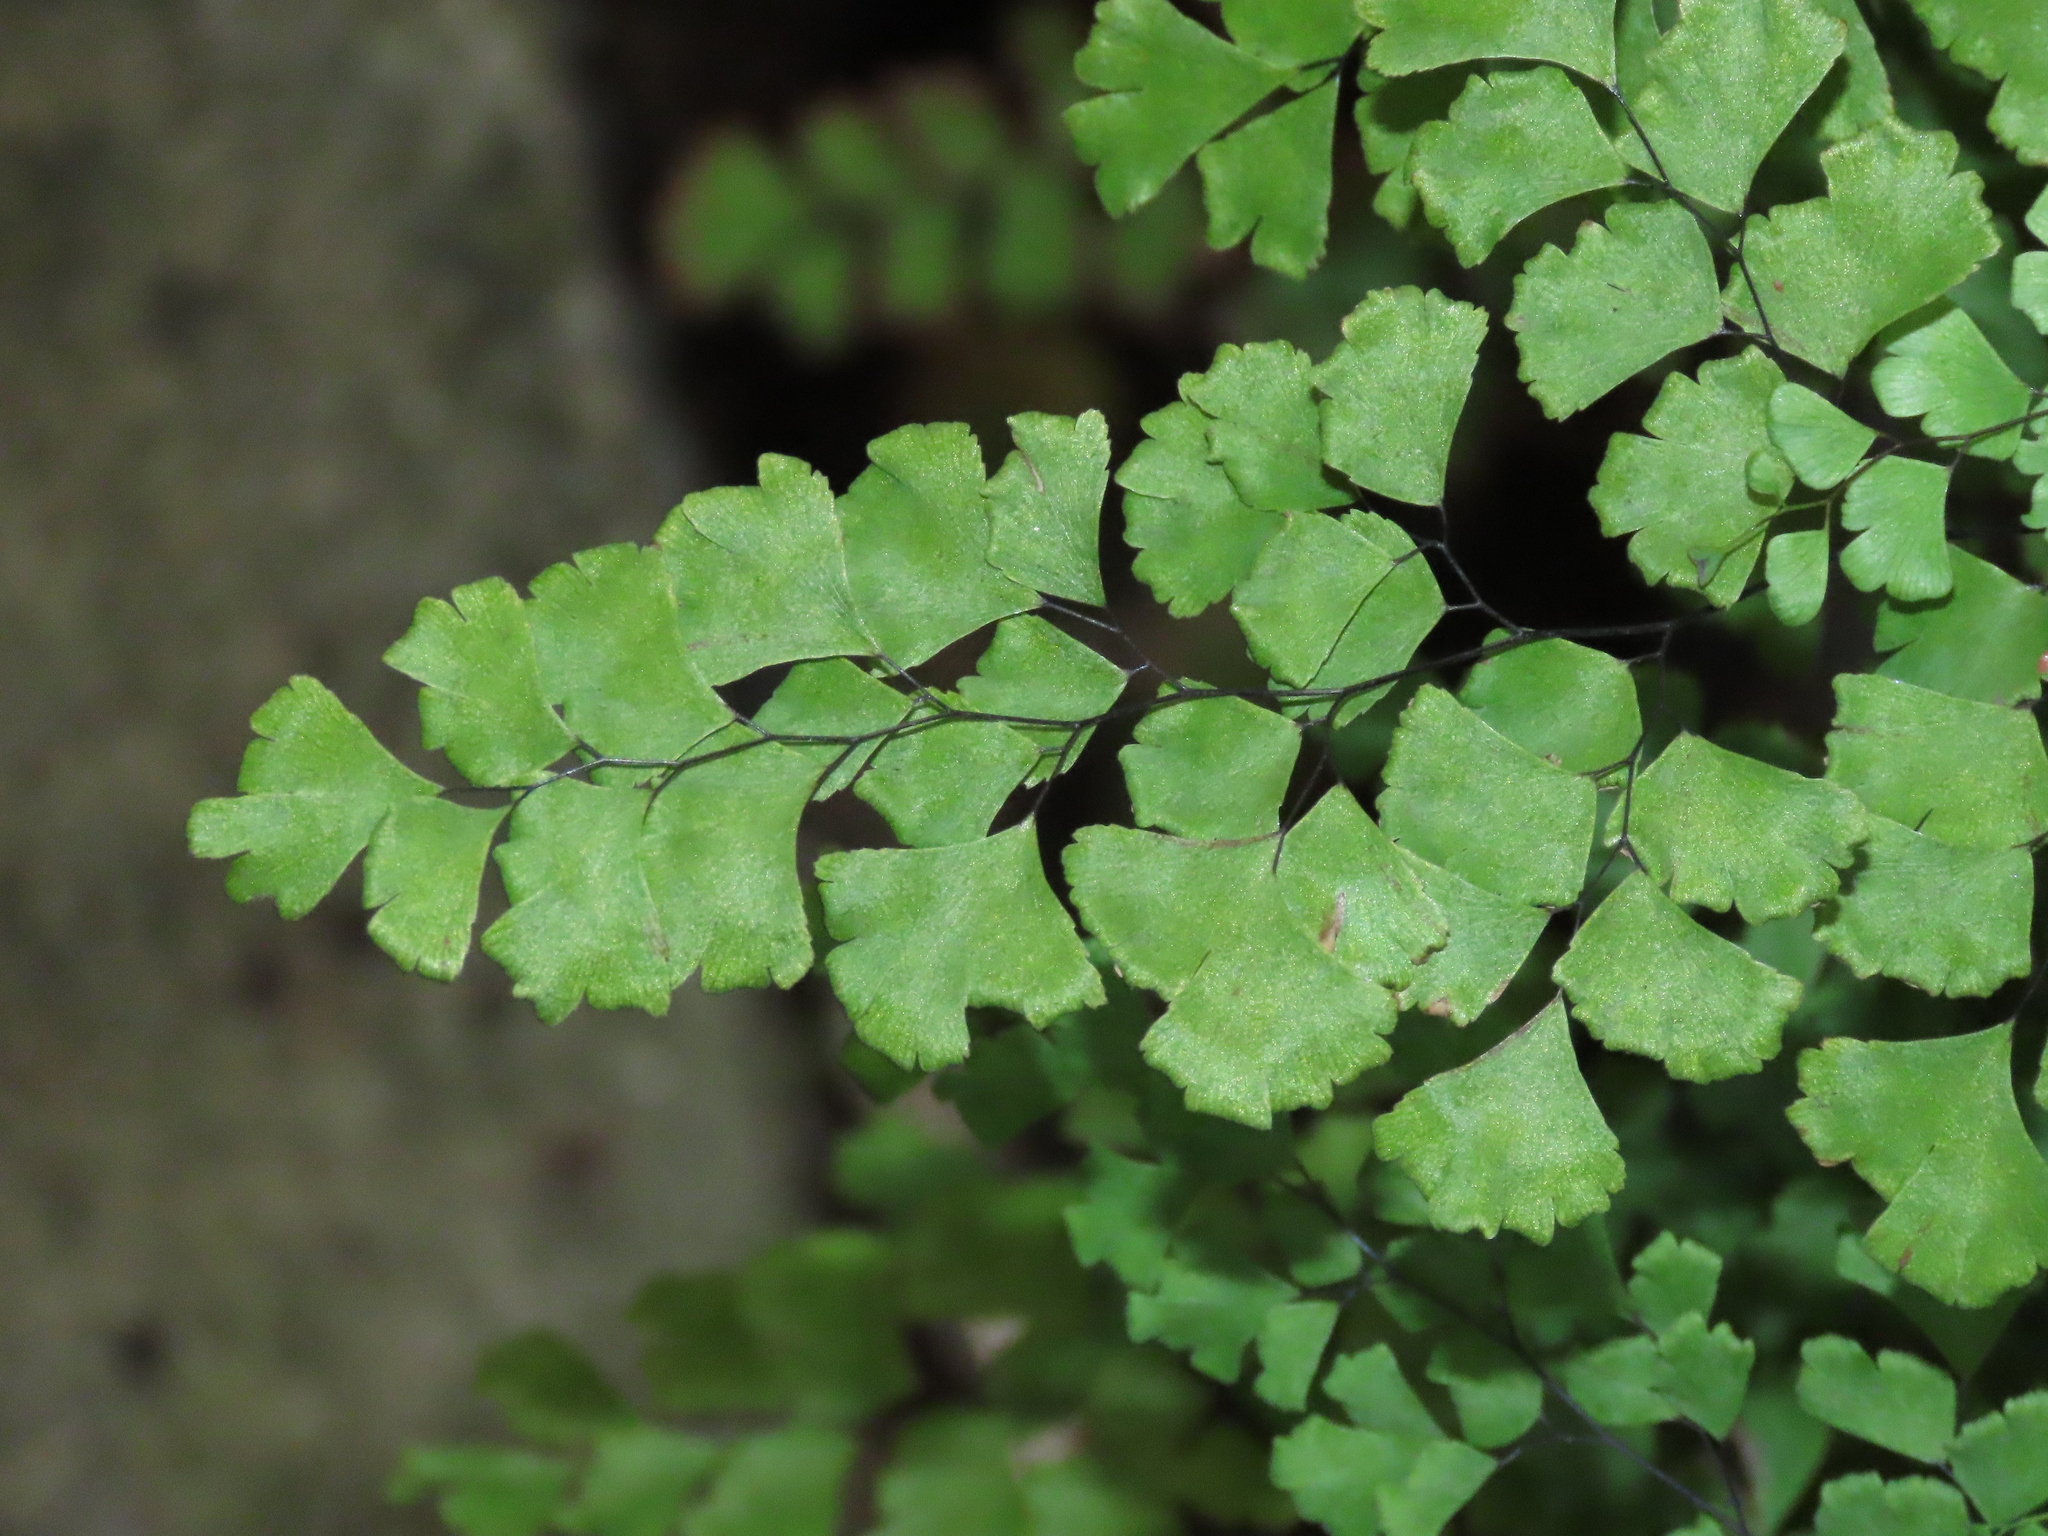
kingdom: Plantae
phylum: Tracheophyta
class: Polypodiopsida
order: Polypodiales
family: Pteridaceae
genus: Adiantum
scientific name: Adiantum capillus-veneris
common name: Maidenhair fern
